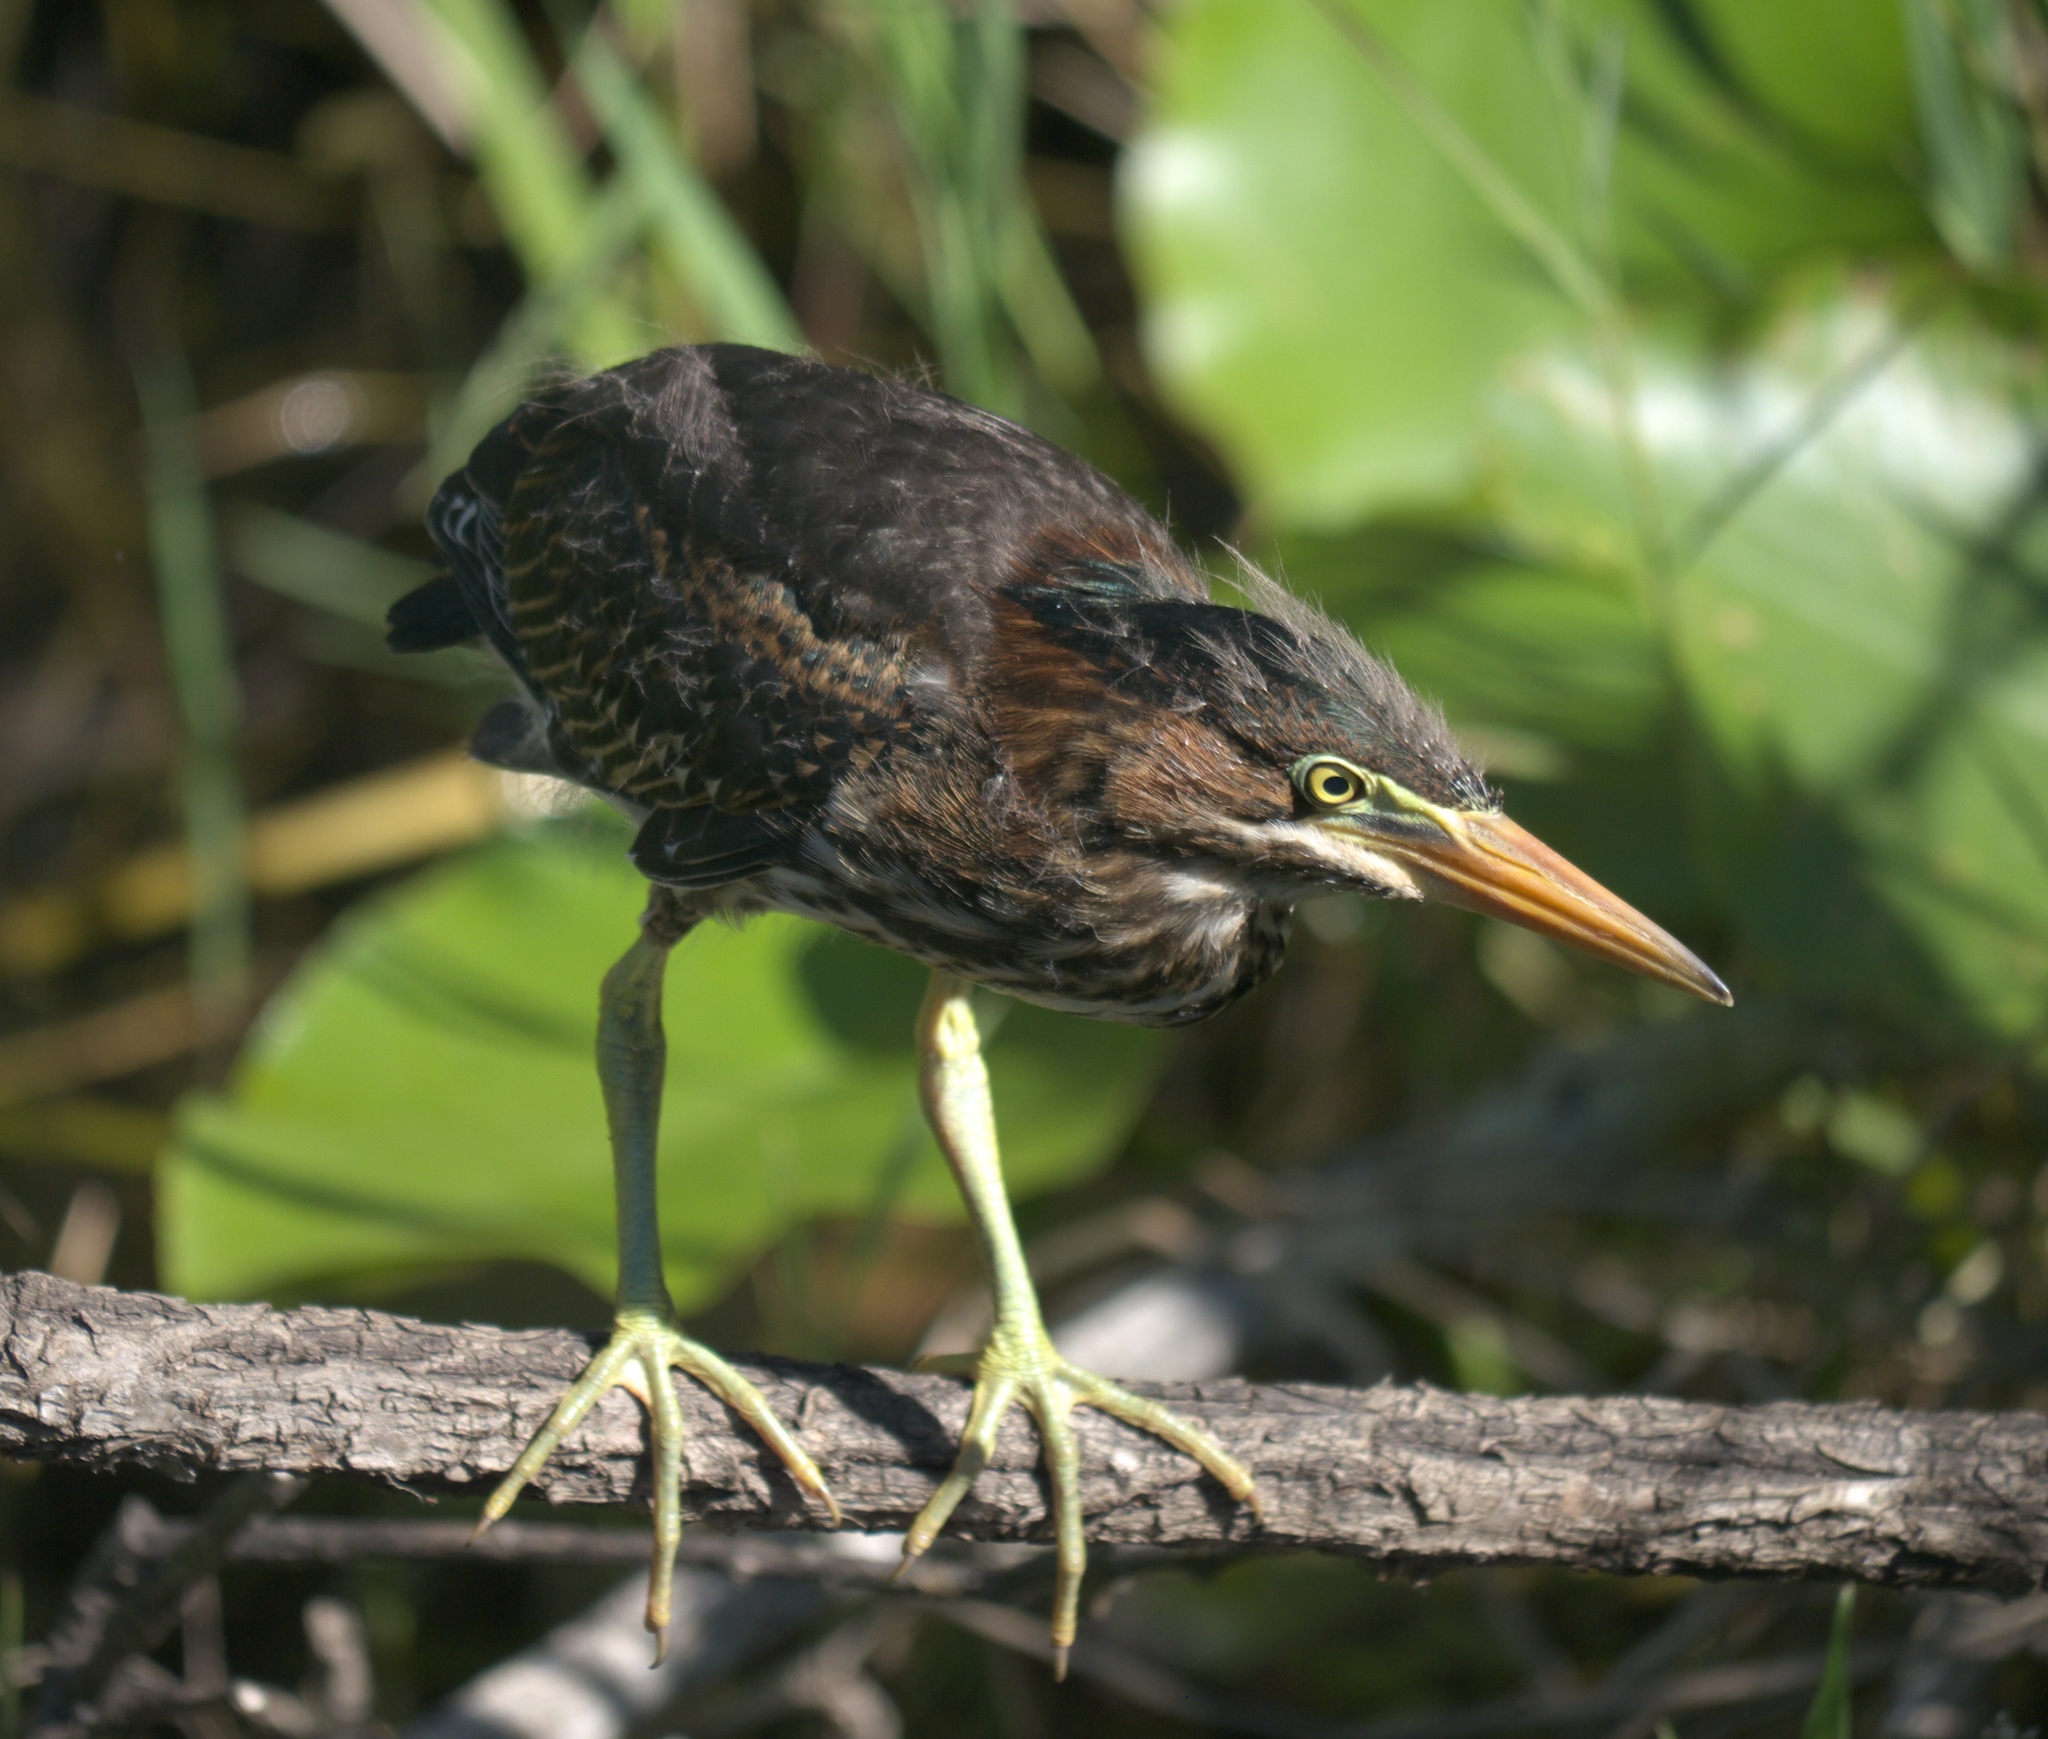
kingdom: Animalia
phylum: Chordata
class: Aves
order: Pelecaniformes
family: Ardeidae
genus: Butorides
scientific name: Butorides virescens
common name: Green heron
